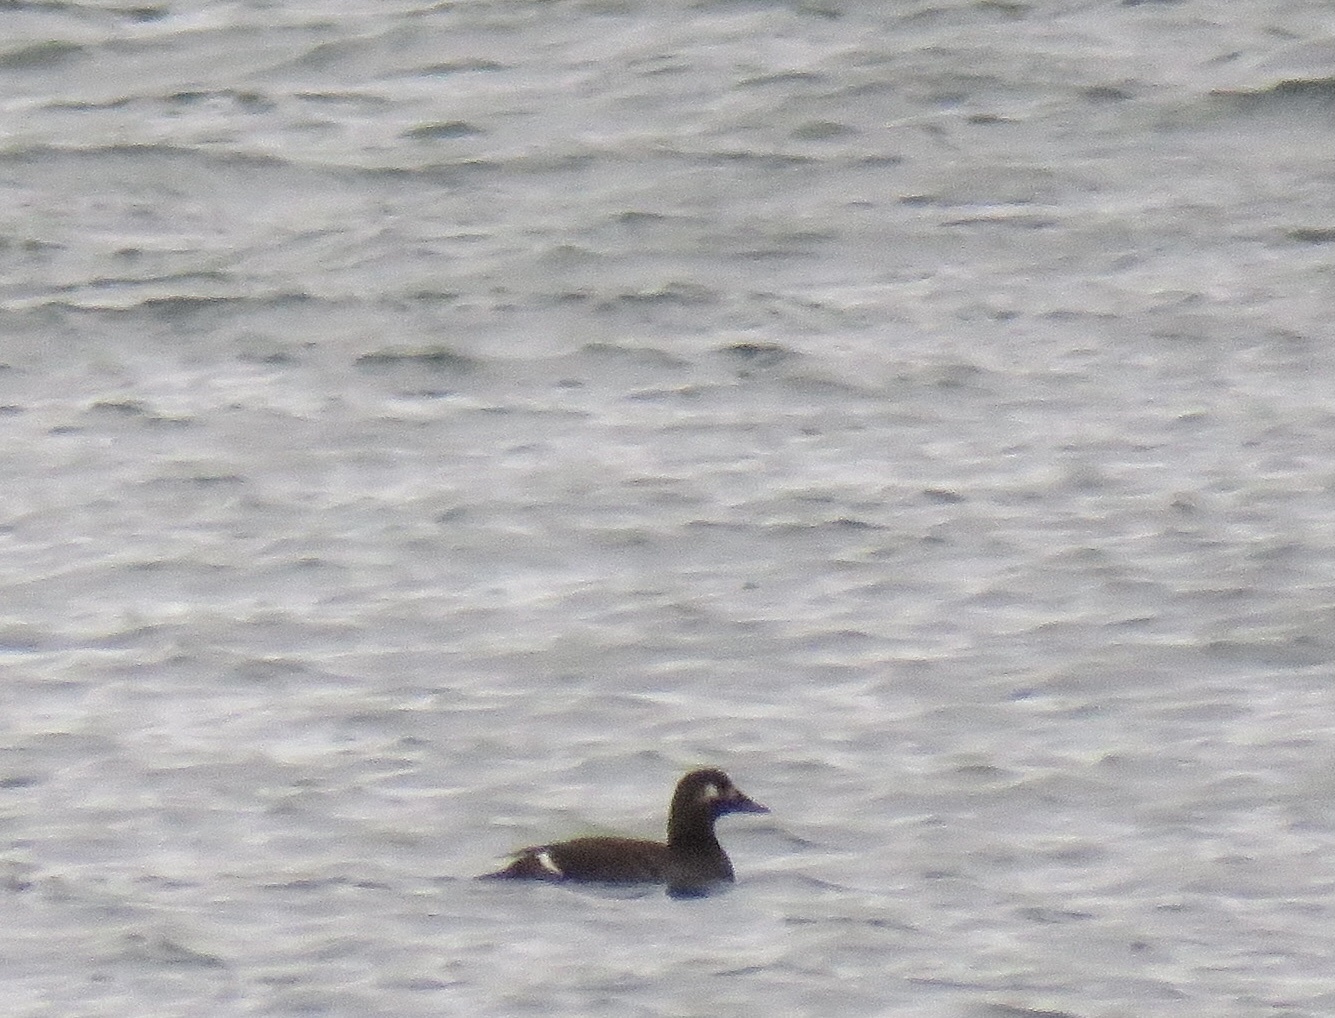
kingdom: Animalia
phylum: Chordata
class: Aves
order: Anseriformes
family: Anatidae
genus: Melanitta
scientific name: Melanitta deglandi
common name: White-winged scoter
